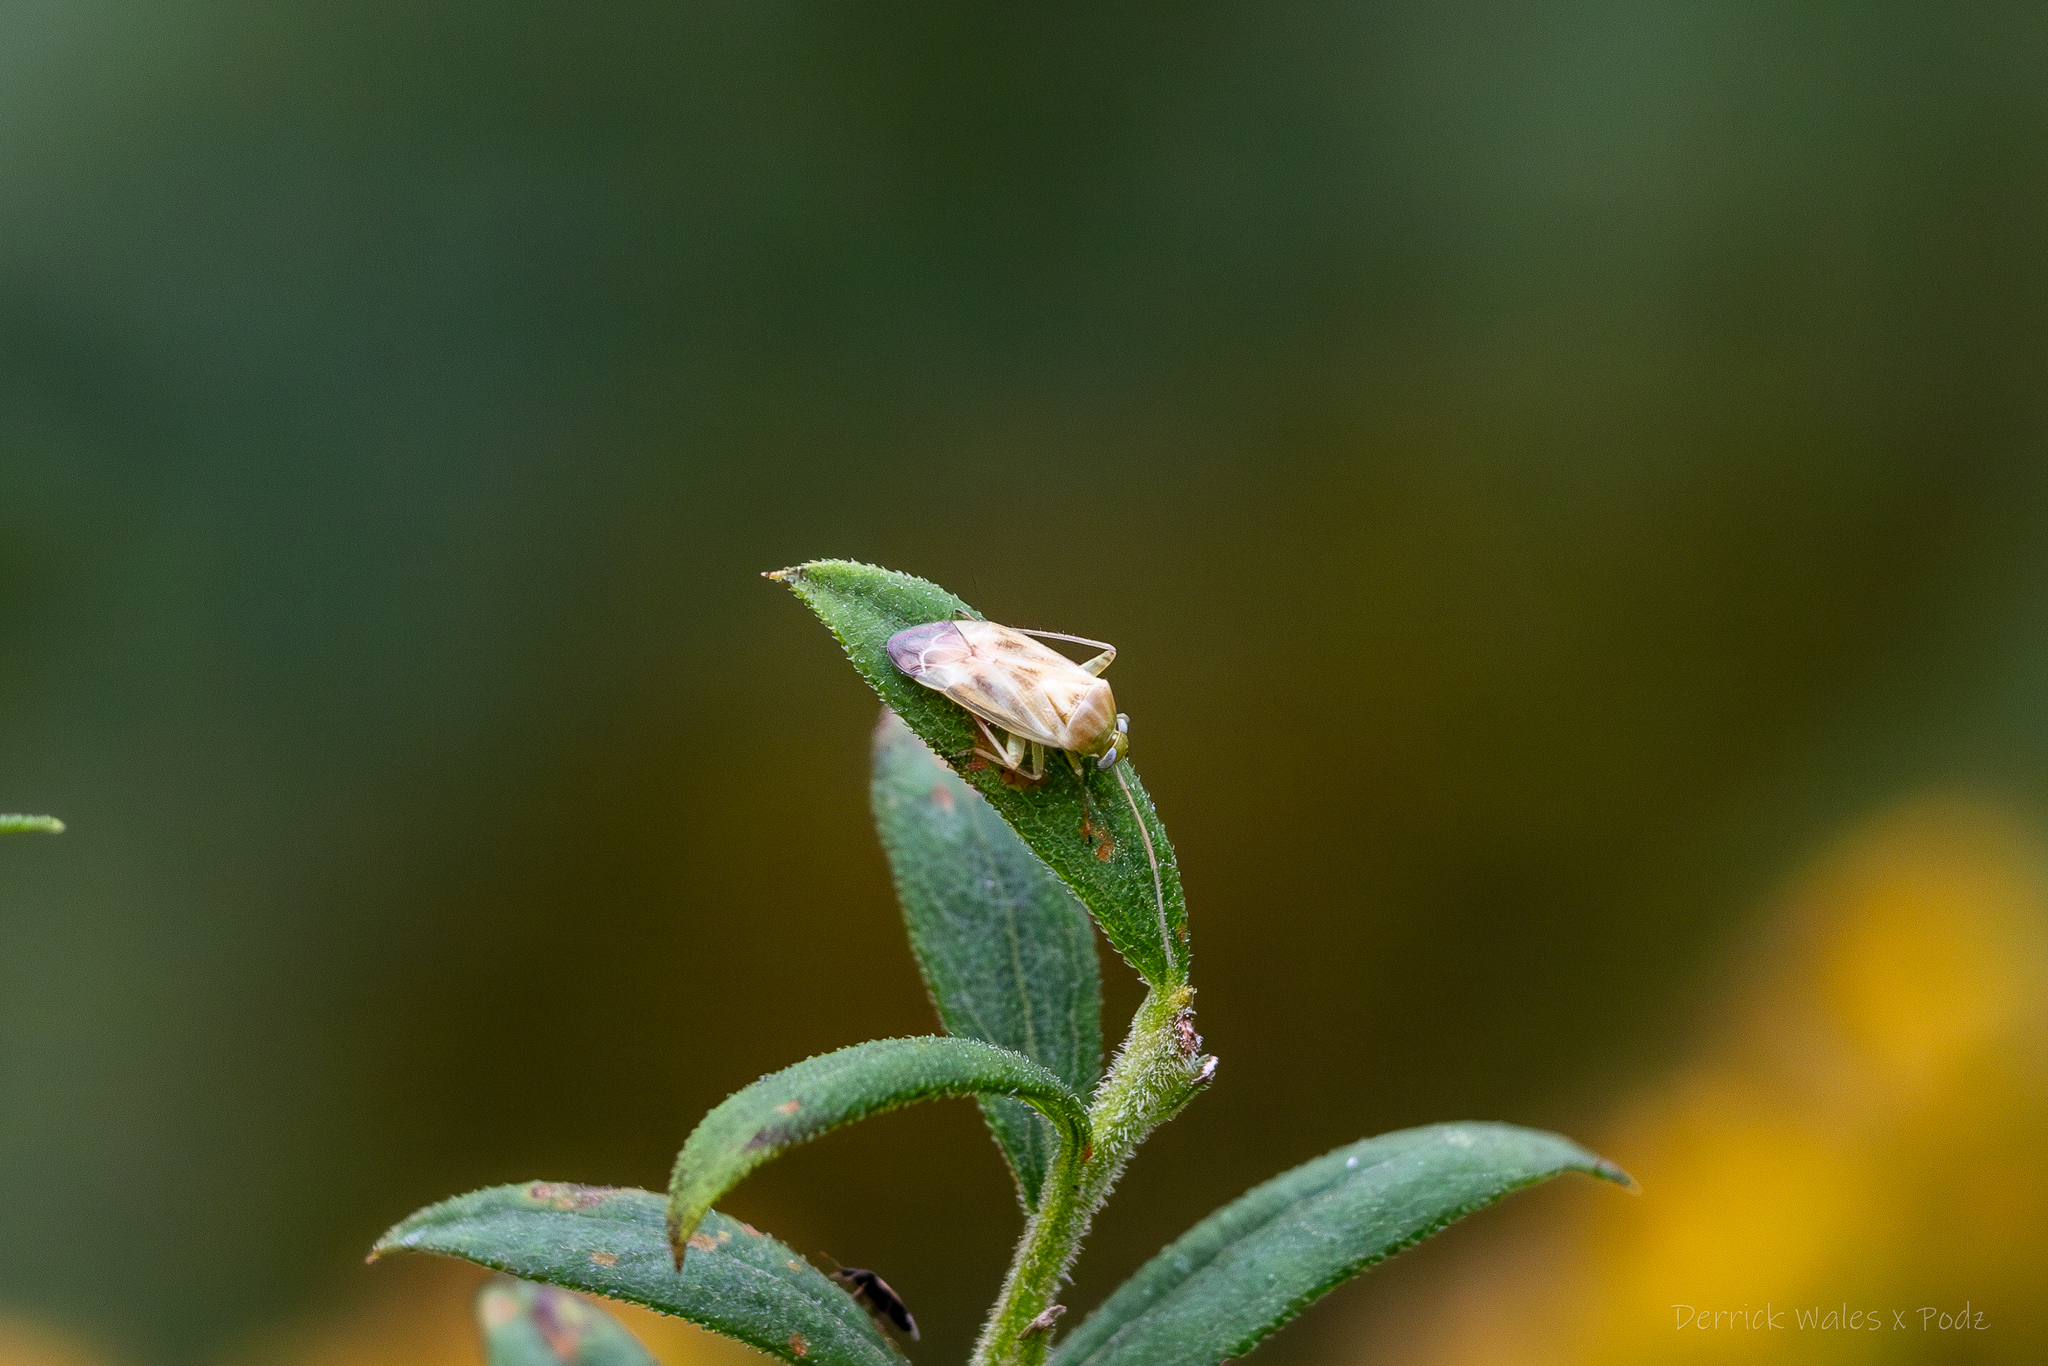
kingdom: Animalia
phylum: Arthropoda
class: Insecta
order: Hemiptera
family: Miridae
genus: Taylorilygus
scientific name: Taylorilygus apicalis
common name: Plant bug
